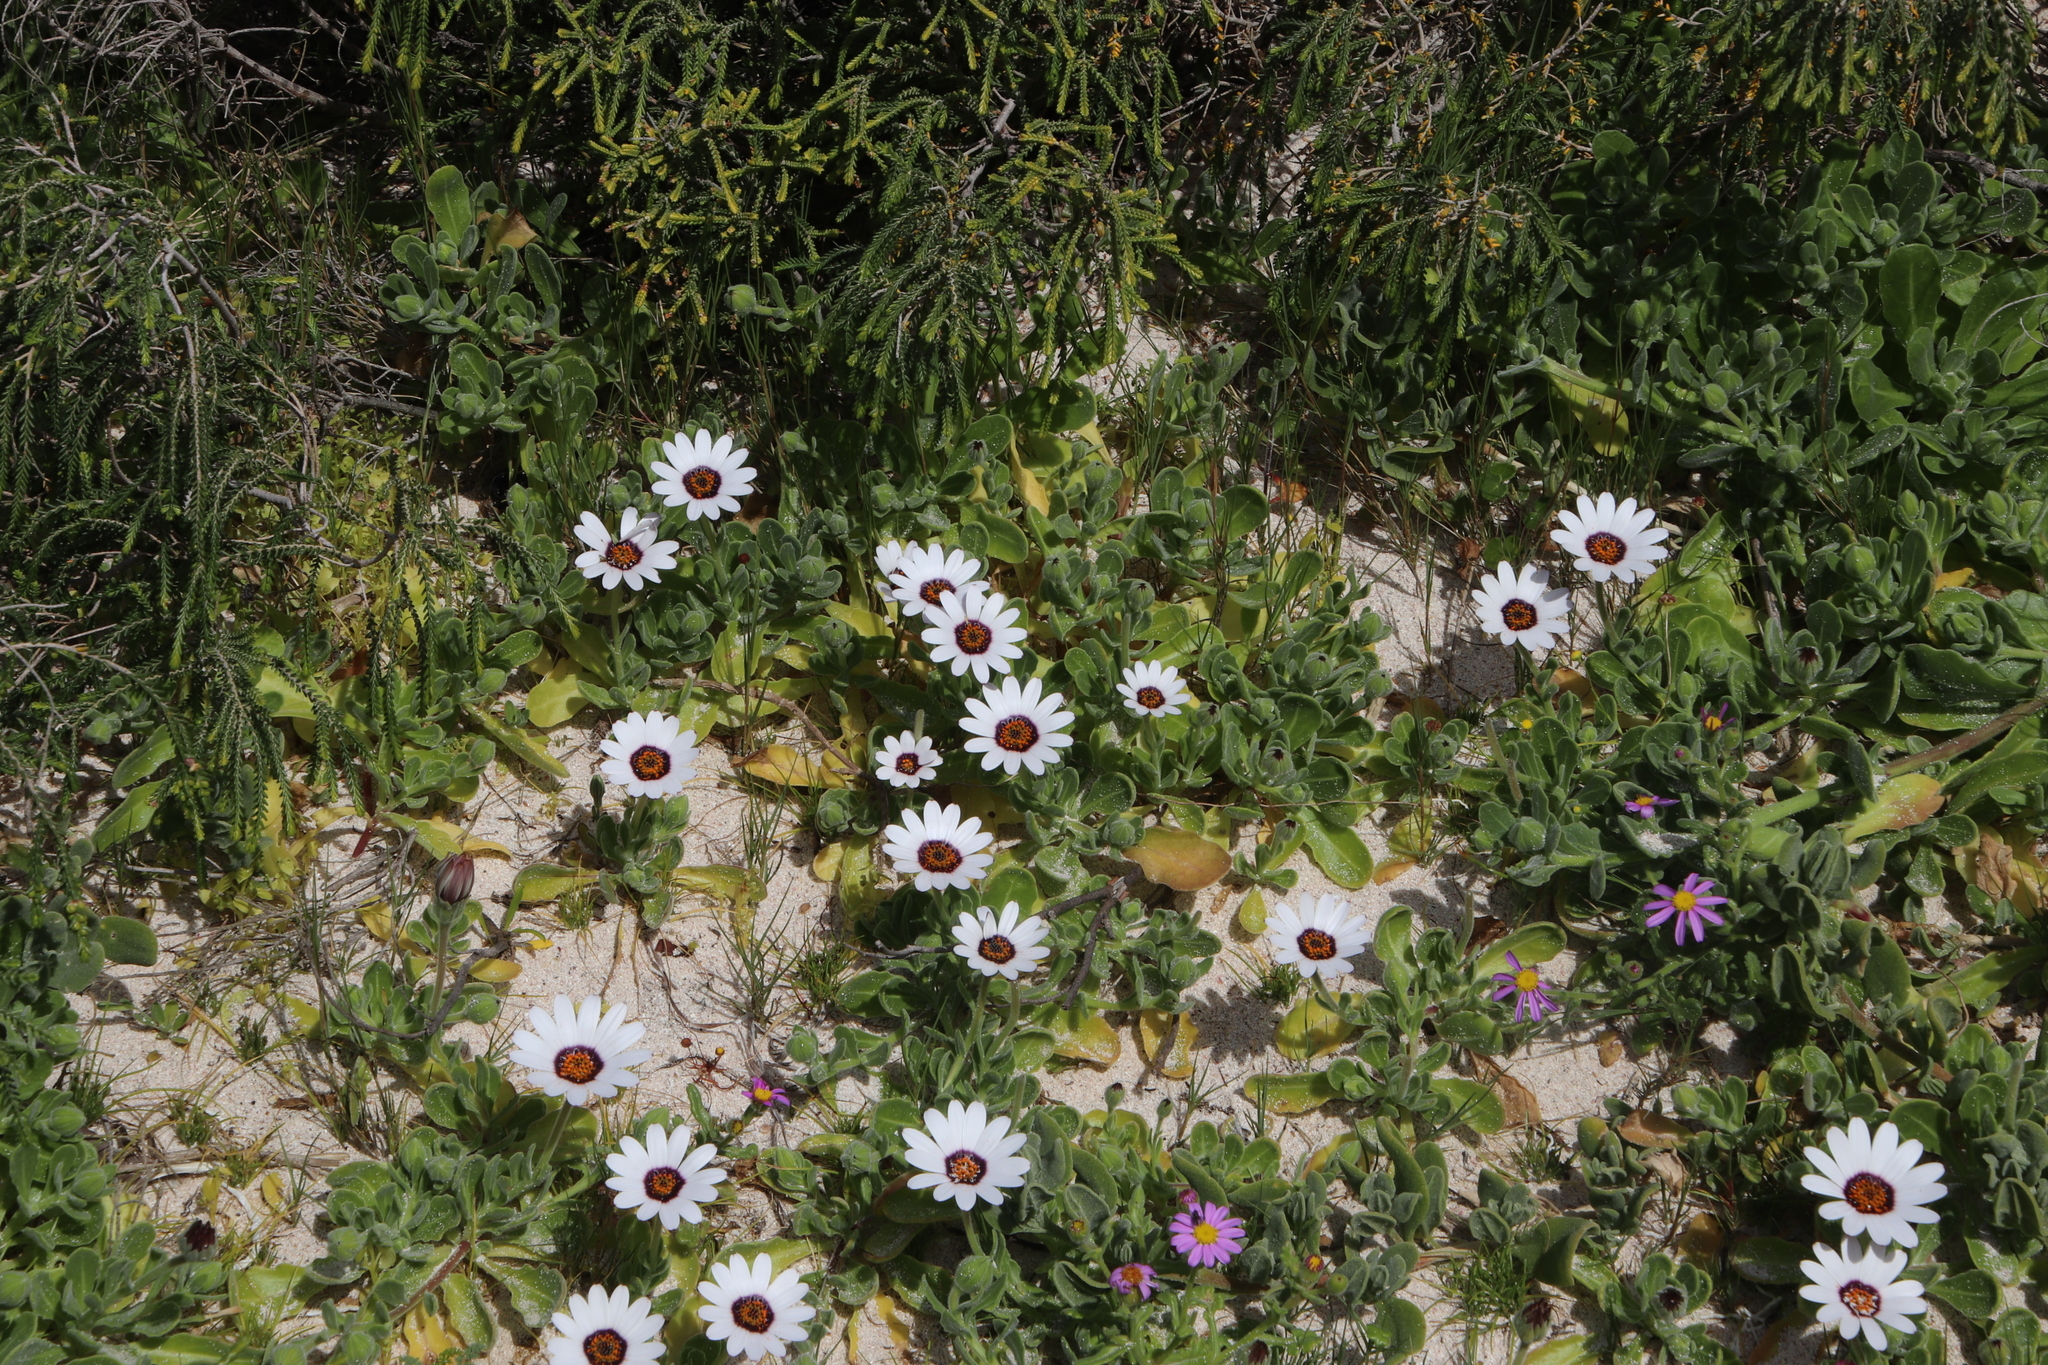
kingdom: Plantae
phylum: Tracheophyta
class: Magnoliopsida
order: Asterales
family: Asteraceae
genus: Dimorphotheca
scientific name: Dimorphotheca fruticosa
